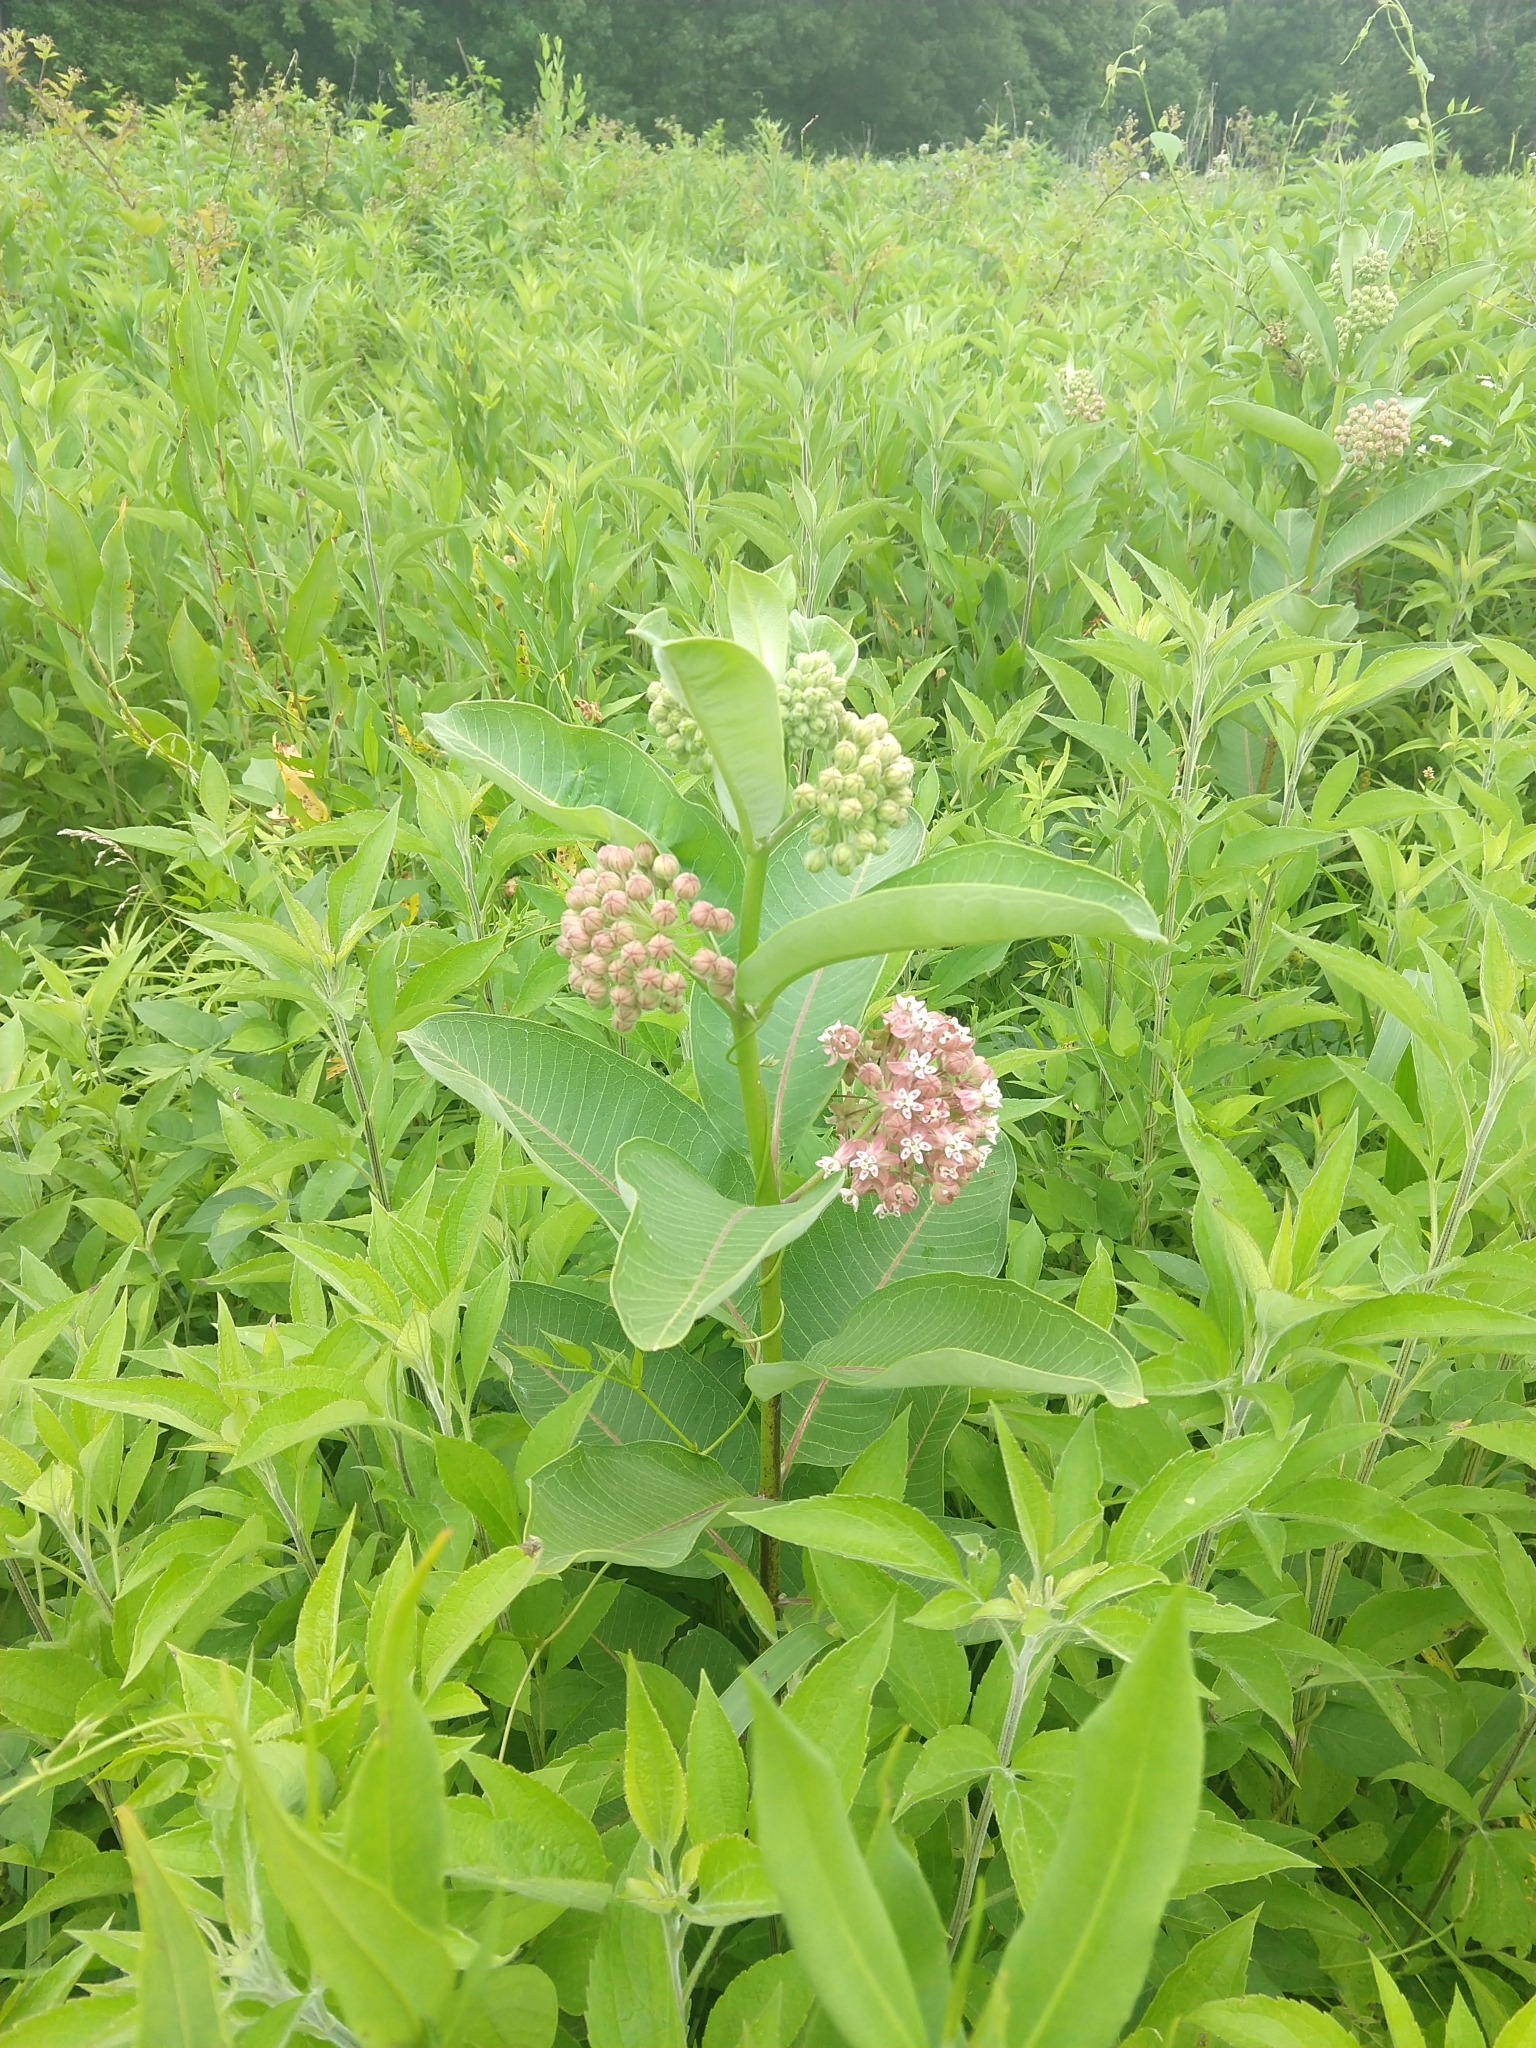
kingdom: Plantae
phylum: Tracheophyta
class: Magnoliopsida
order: Gentianales
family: Apocynaceae
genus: Asclepias
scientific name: Asclepias syriaca
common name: Common milkweed
